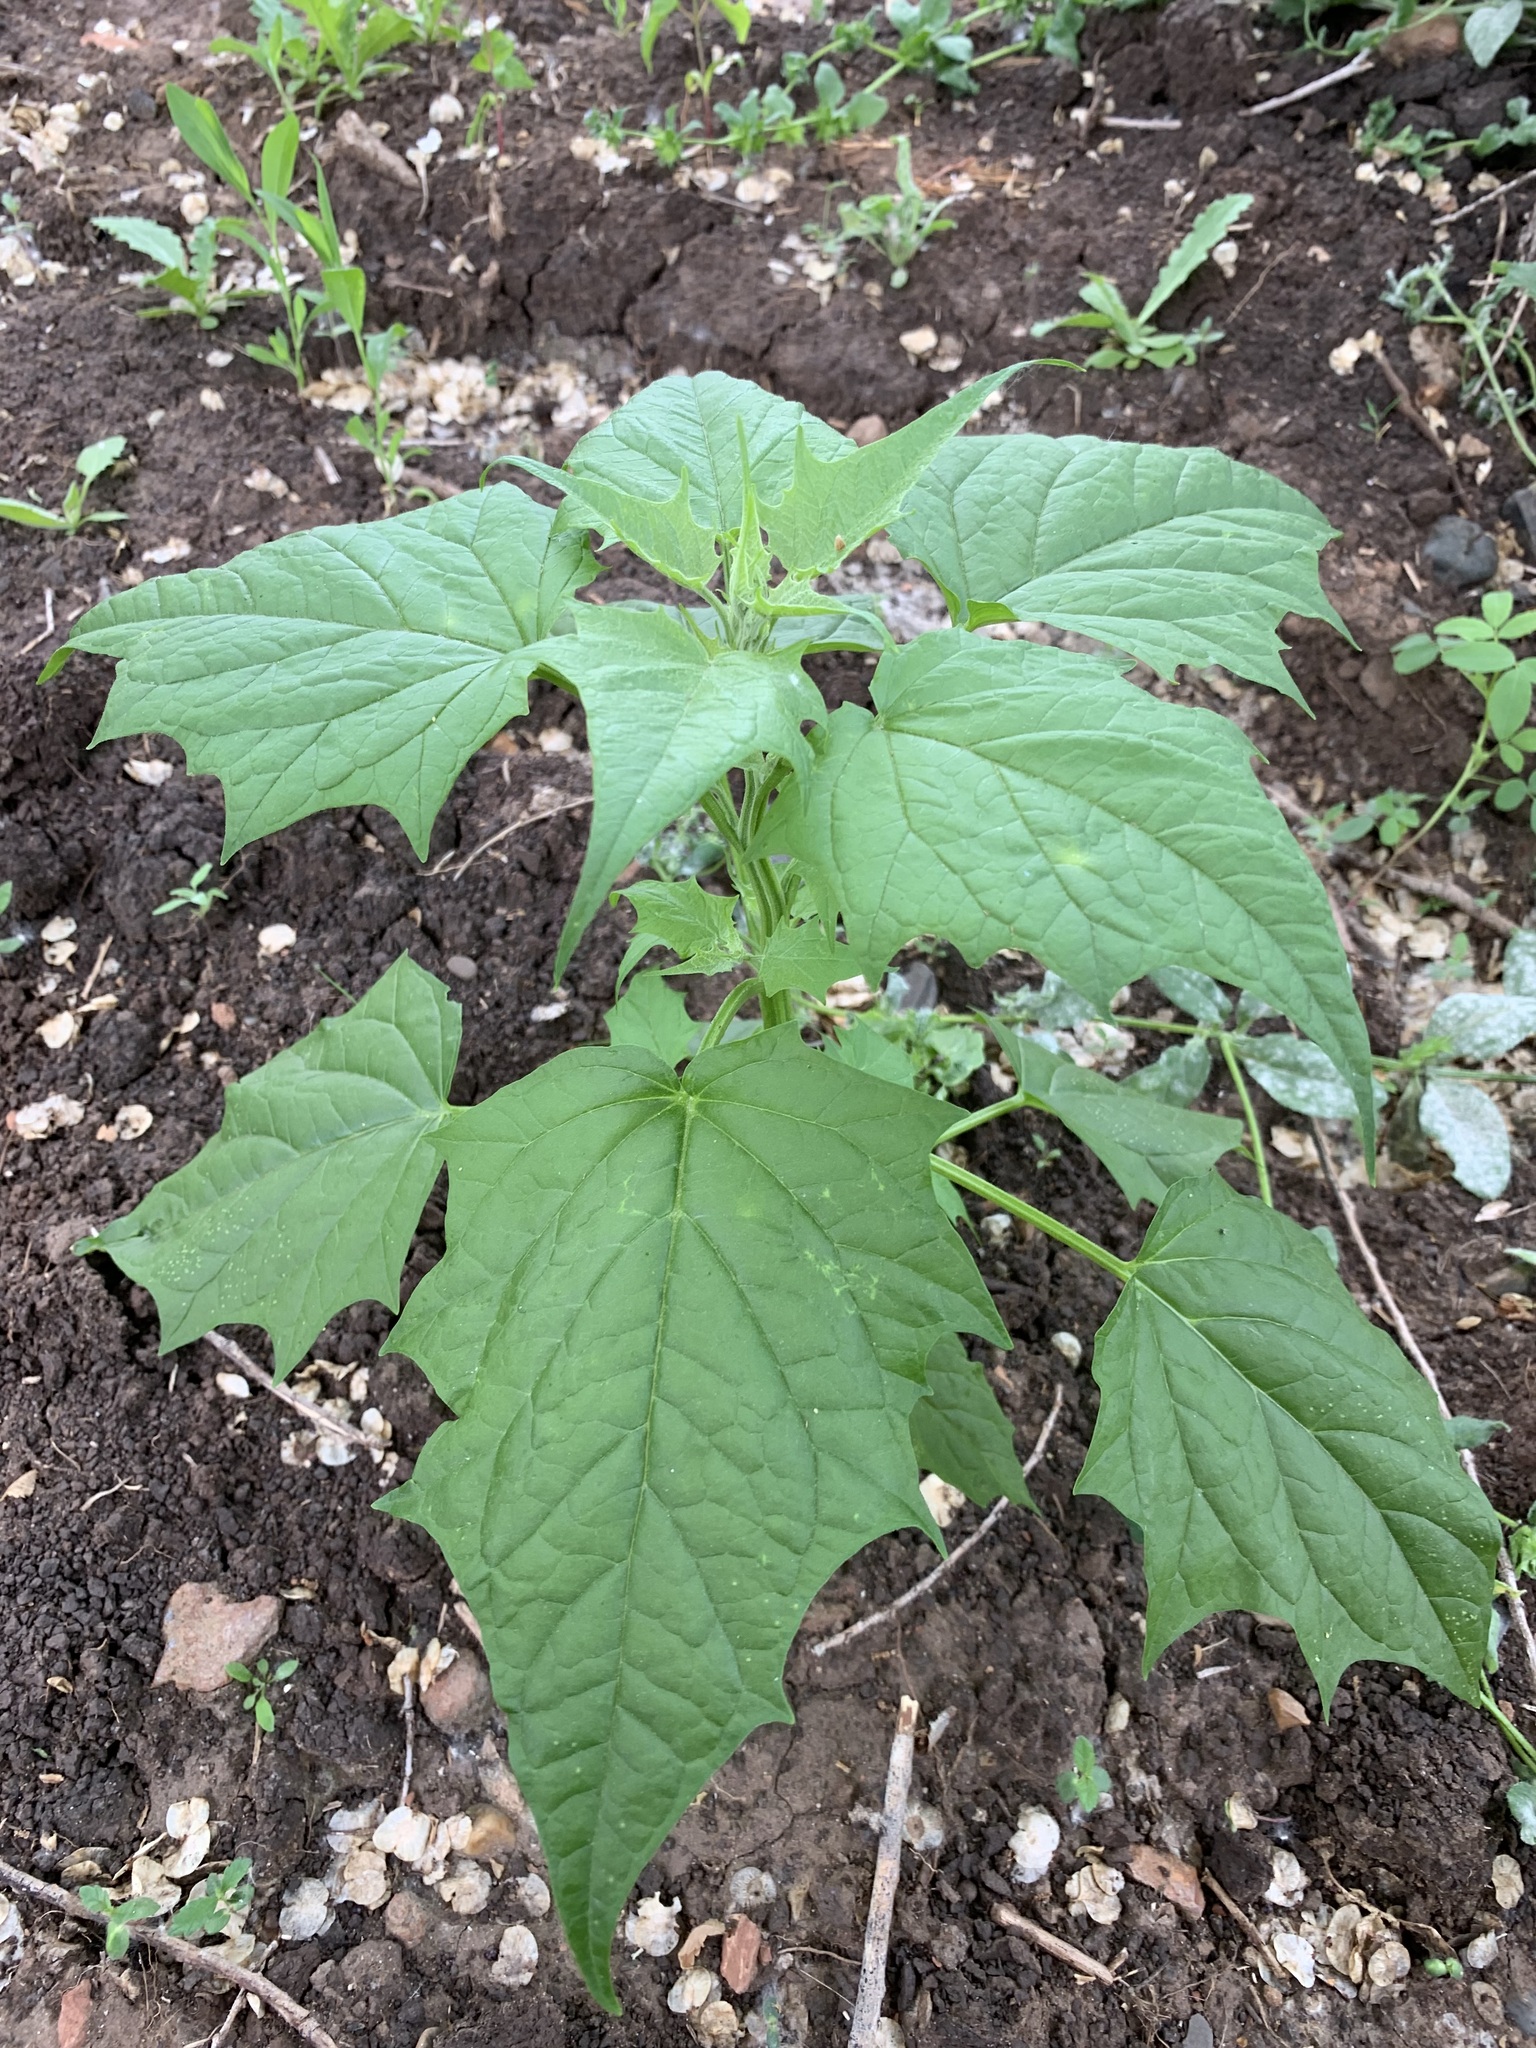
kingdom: Plantae
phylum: Tracheophyta
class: Magnoliopsida
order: Caryophyllales
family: Amaranthaceae
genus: Chenopodiastrum
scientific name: Chenopodiastrum hybridum
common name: Mapleleaf goosefoot
